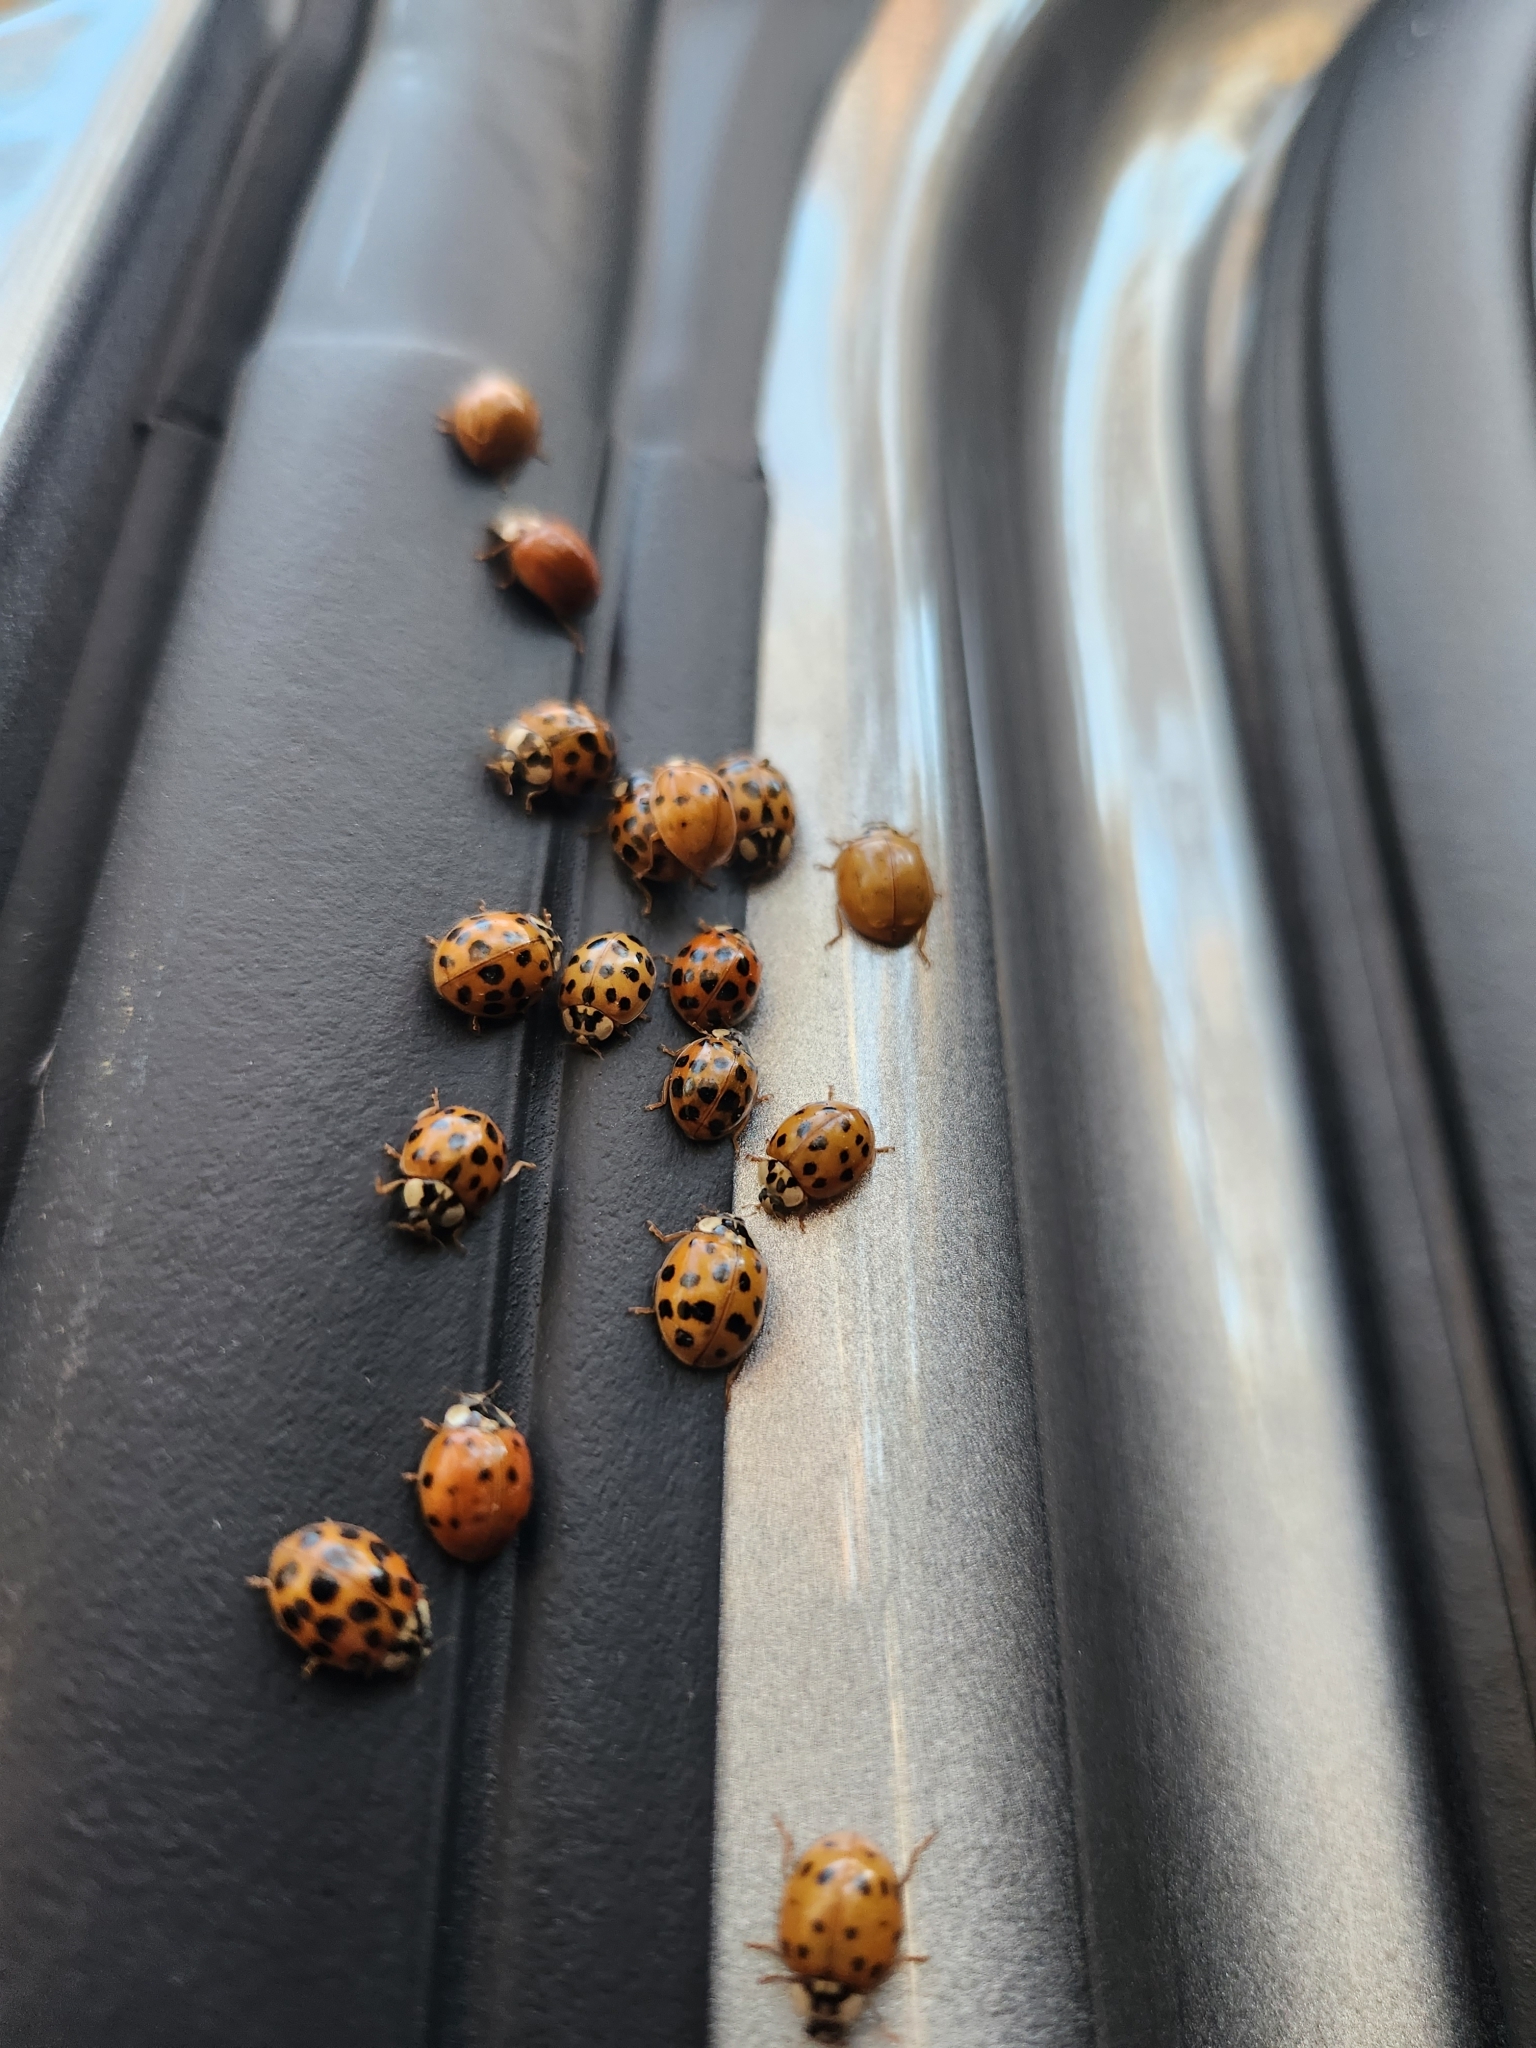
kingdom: Animalia
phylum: Arthropoda
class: Insecta
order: Coleoptera
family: Coccinellidae
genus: Harmonia
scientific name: Harmonia axyridis
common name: Harlequin ladybird
